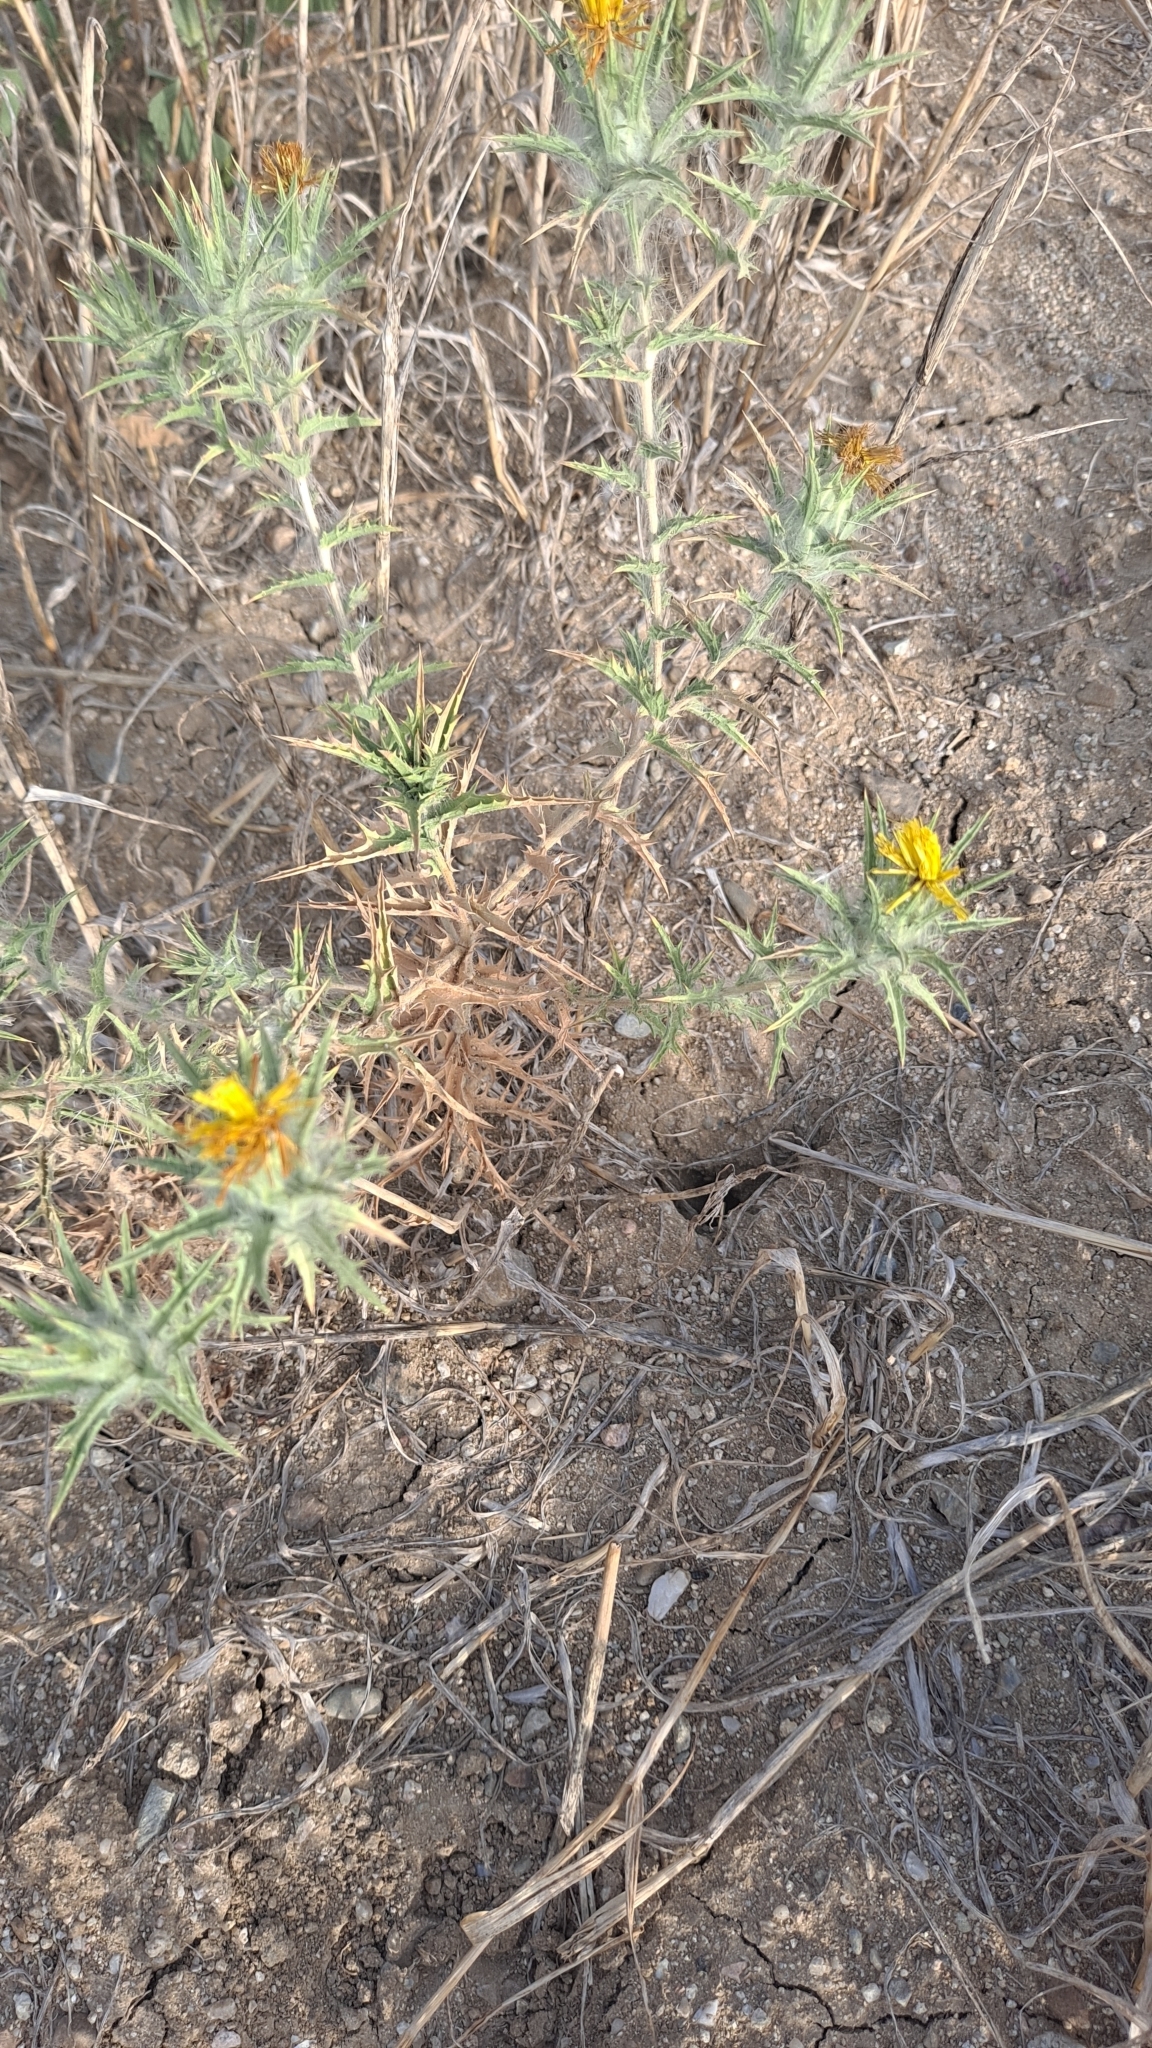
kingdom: Plantae
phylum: Tracheophyta
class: Magnoliopsida
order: Asterales
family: Asteraceae
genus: Carthamus
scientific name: Carthamus lanatus
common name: Downy safflower
